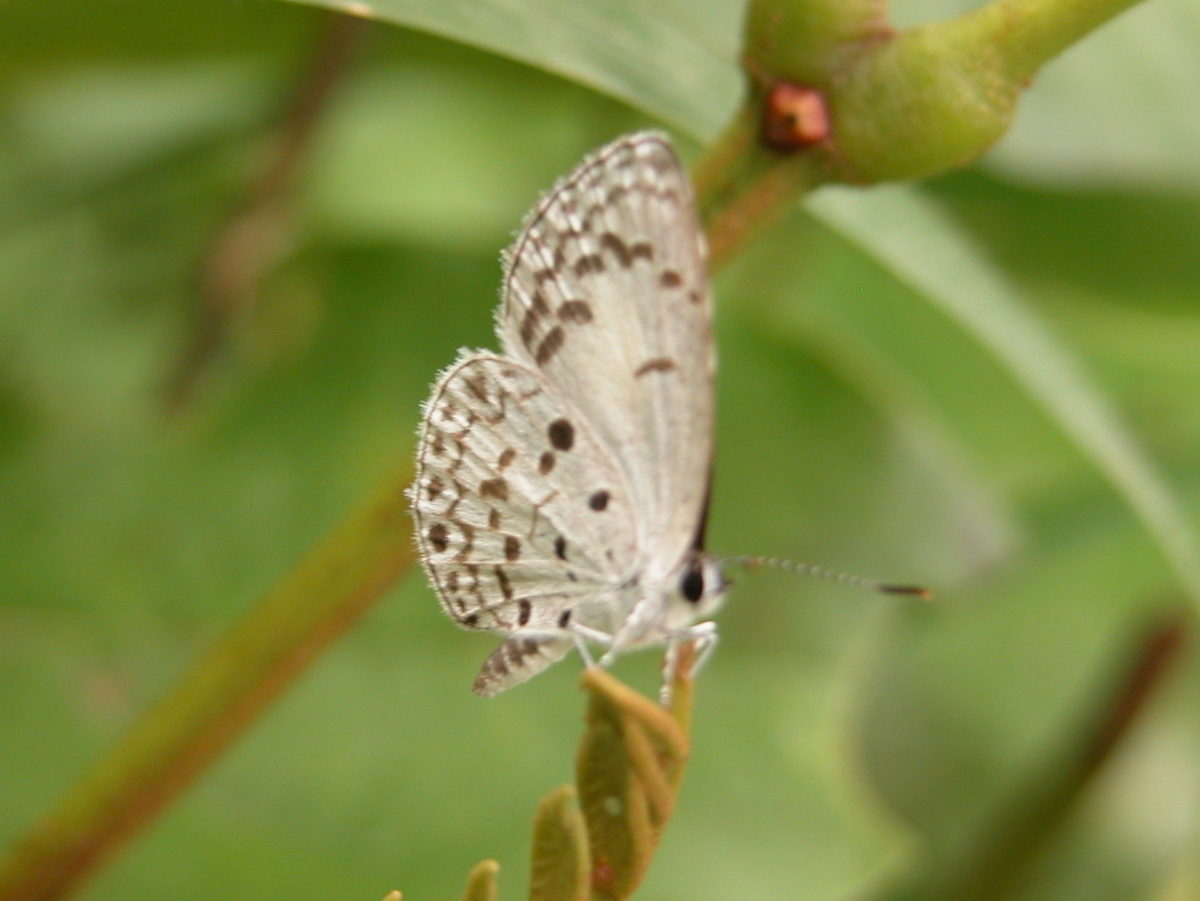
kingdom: Animalia
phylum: Arthropoda
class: Insecta
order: Lepidoptera
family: Lycaenidae
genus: Acytolepis
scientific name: Acytolepis puspa
